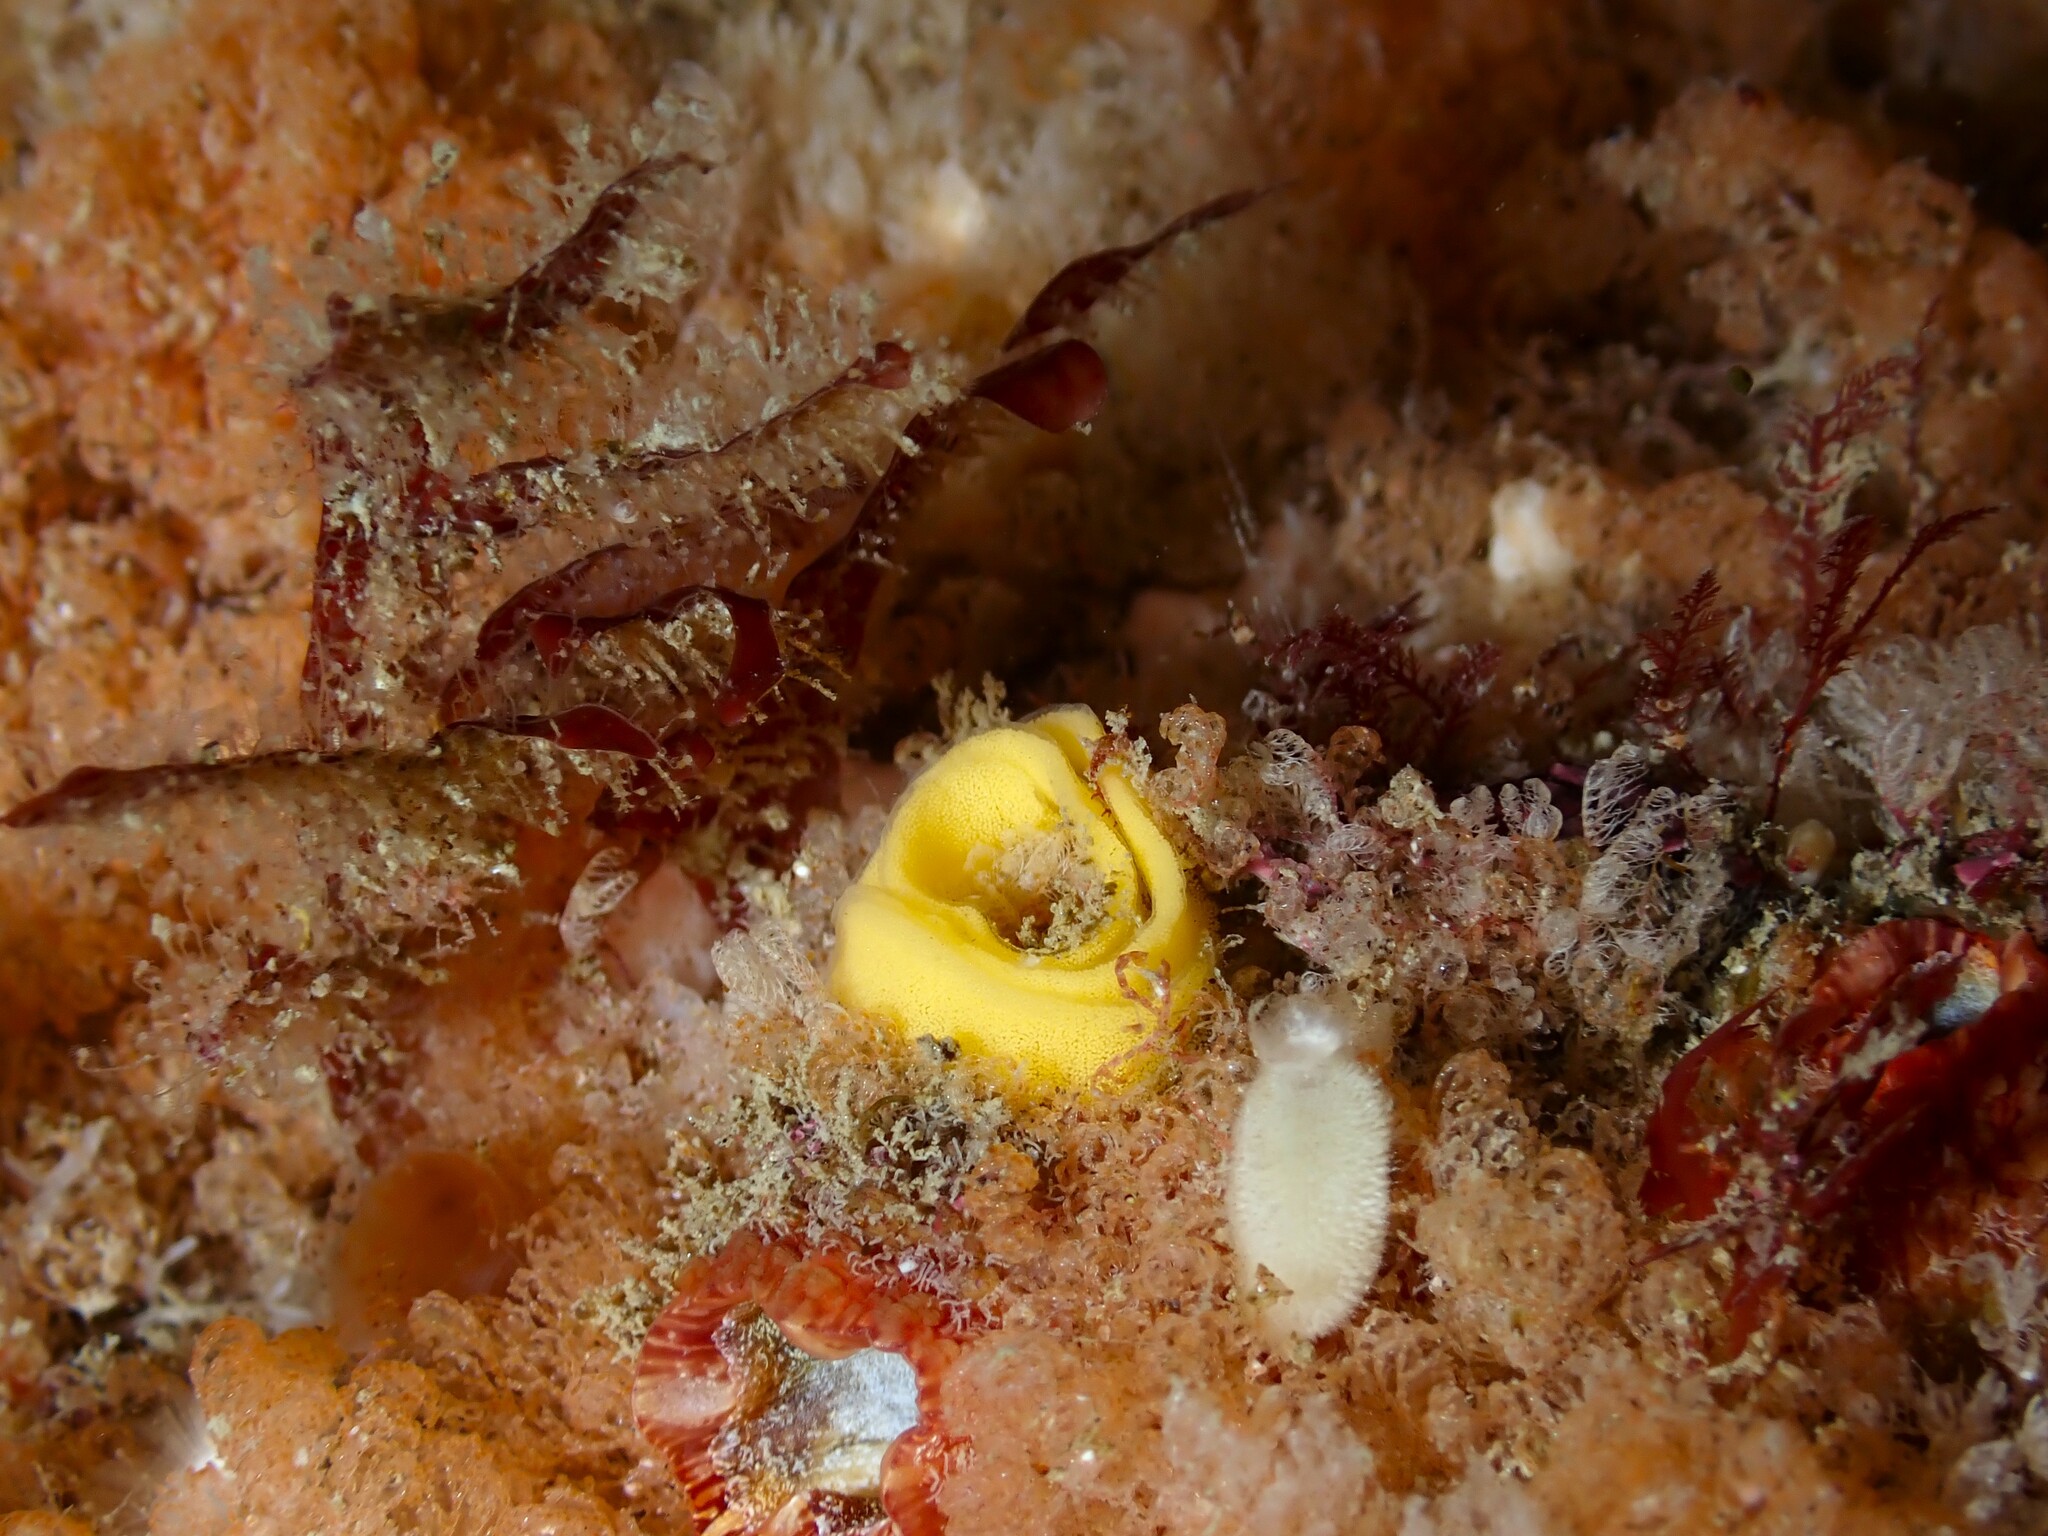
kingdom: Animalia
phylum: Mollusca
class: Gastropoda
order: Nudibranchia
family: Dorididae
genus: Doriopsis
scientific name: Doriopsis granulosa
